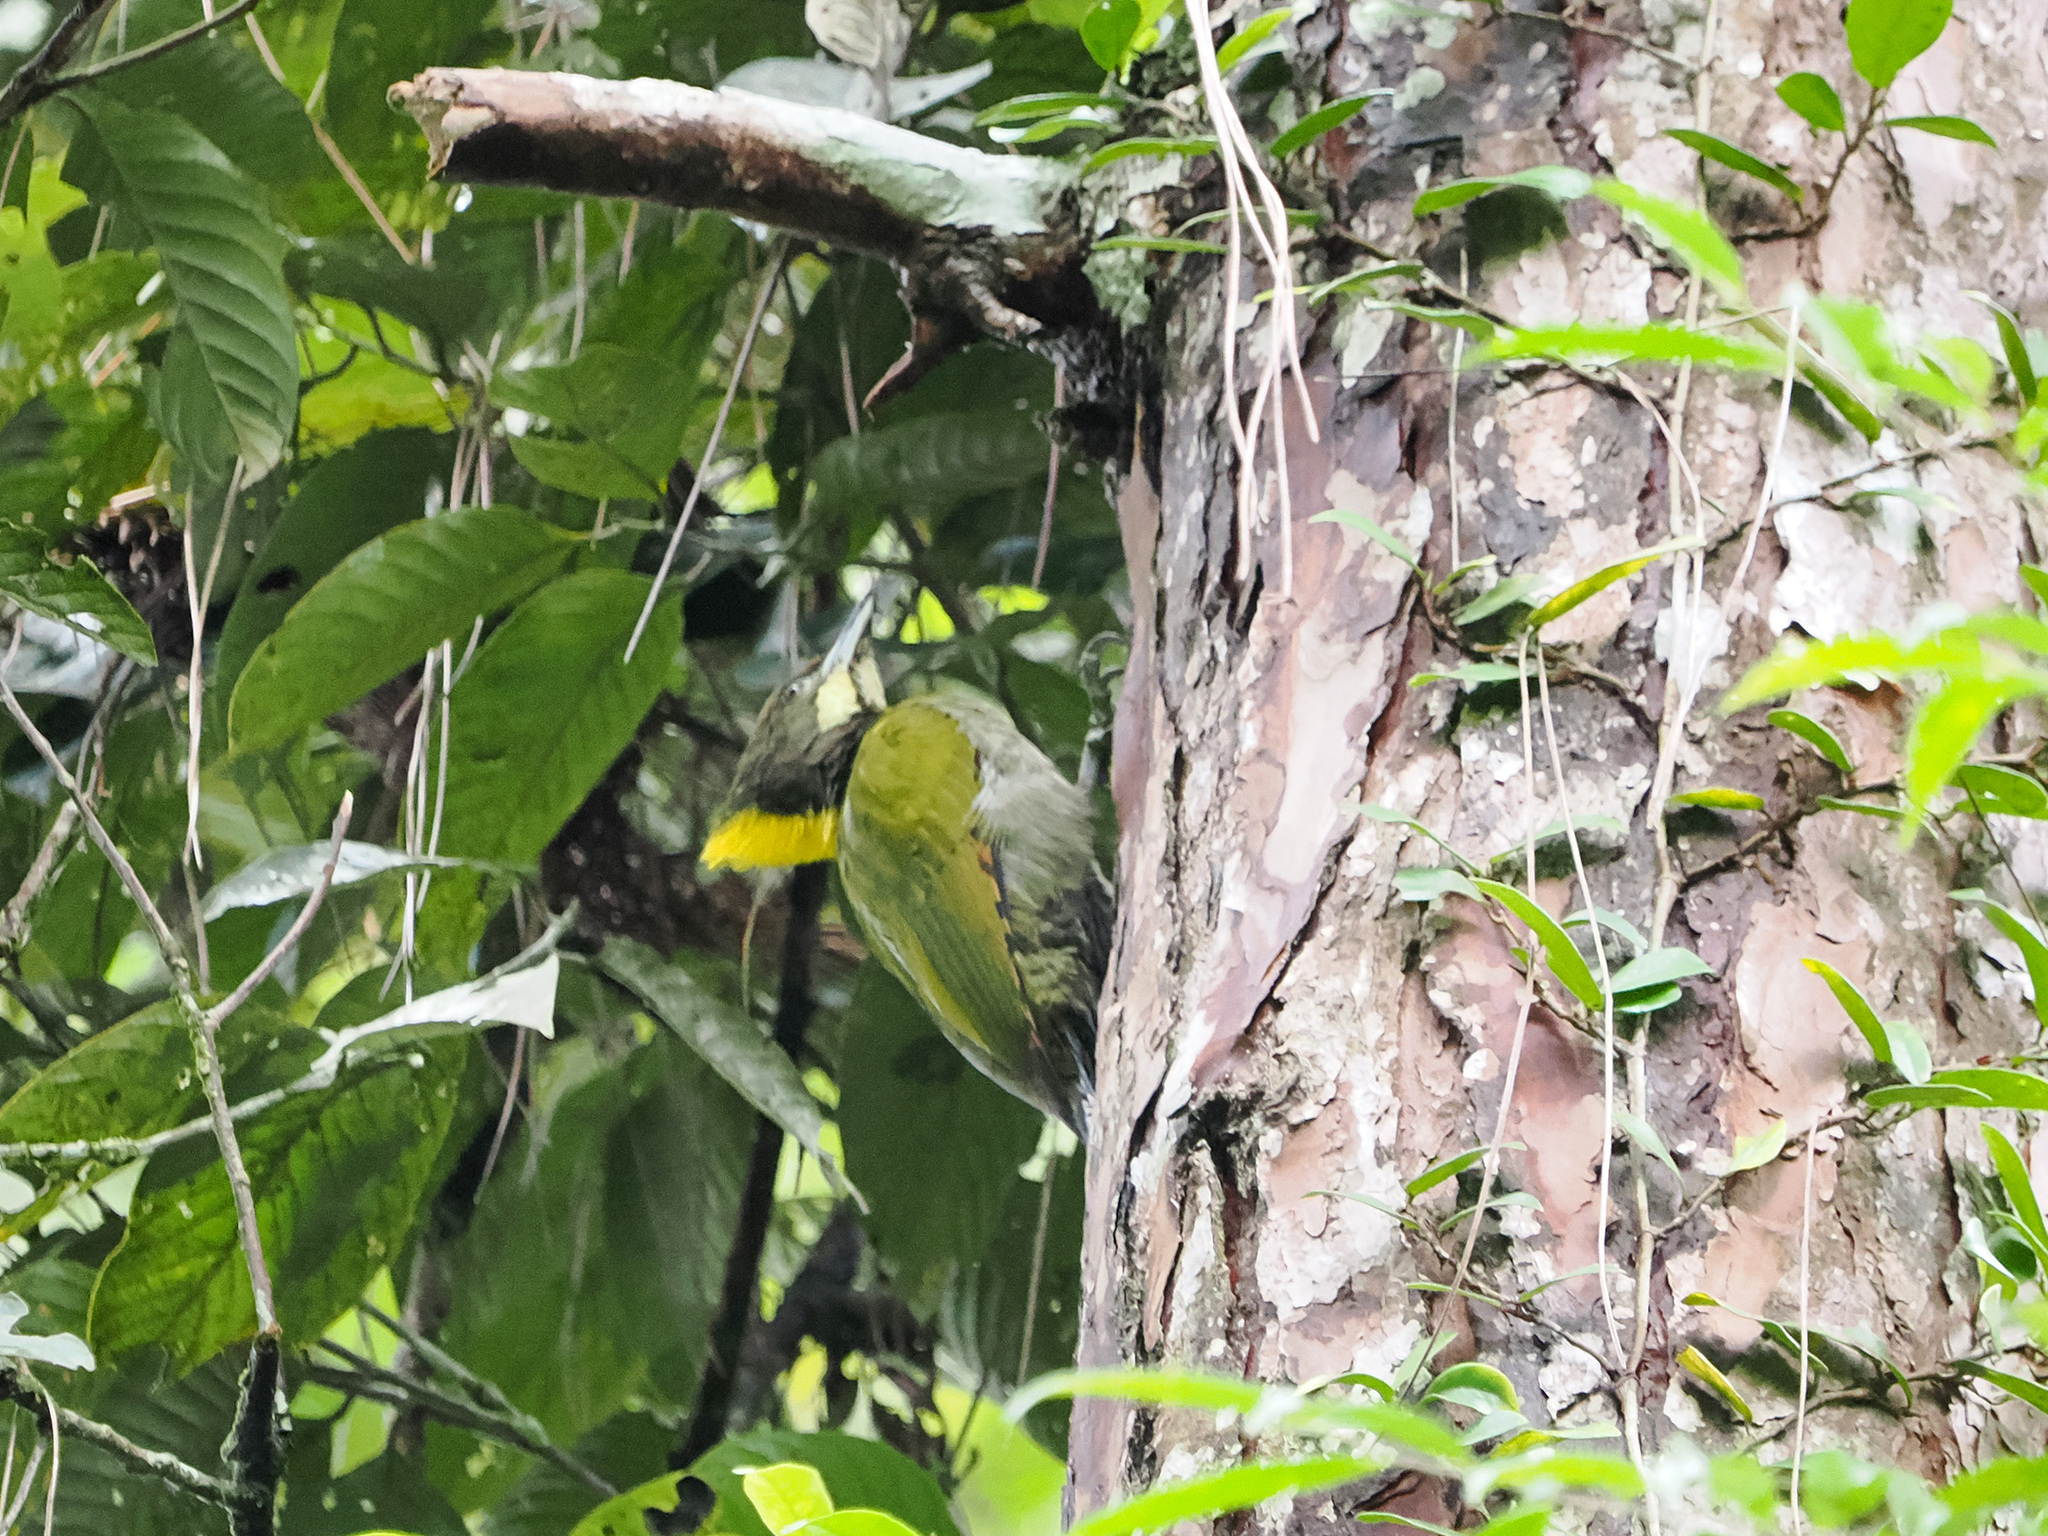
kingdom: Animalia
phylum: Chordata
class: Aves
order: Piciformes
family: Picidae
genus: Chrysophlegma
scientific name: Chrysophlegma flavinucha
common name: Greater yellownape
